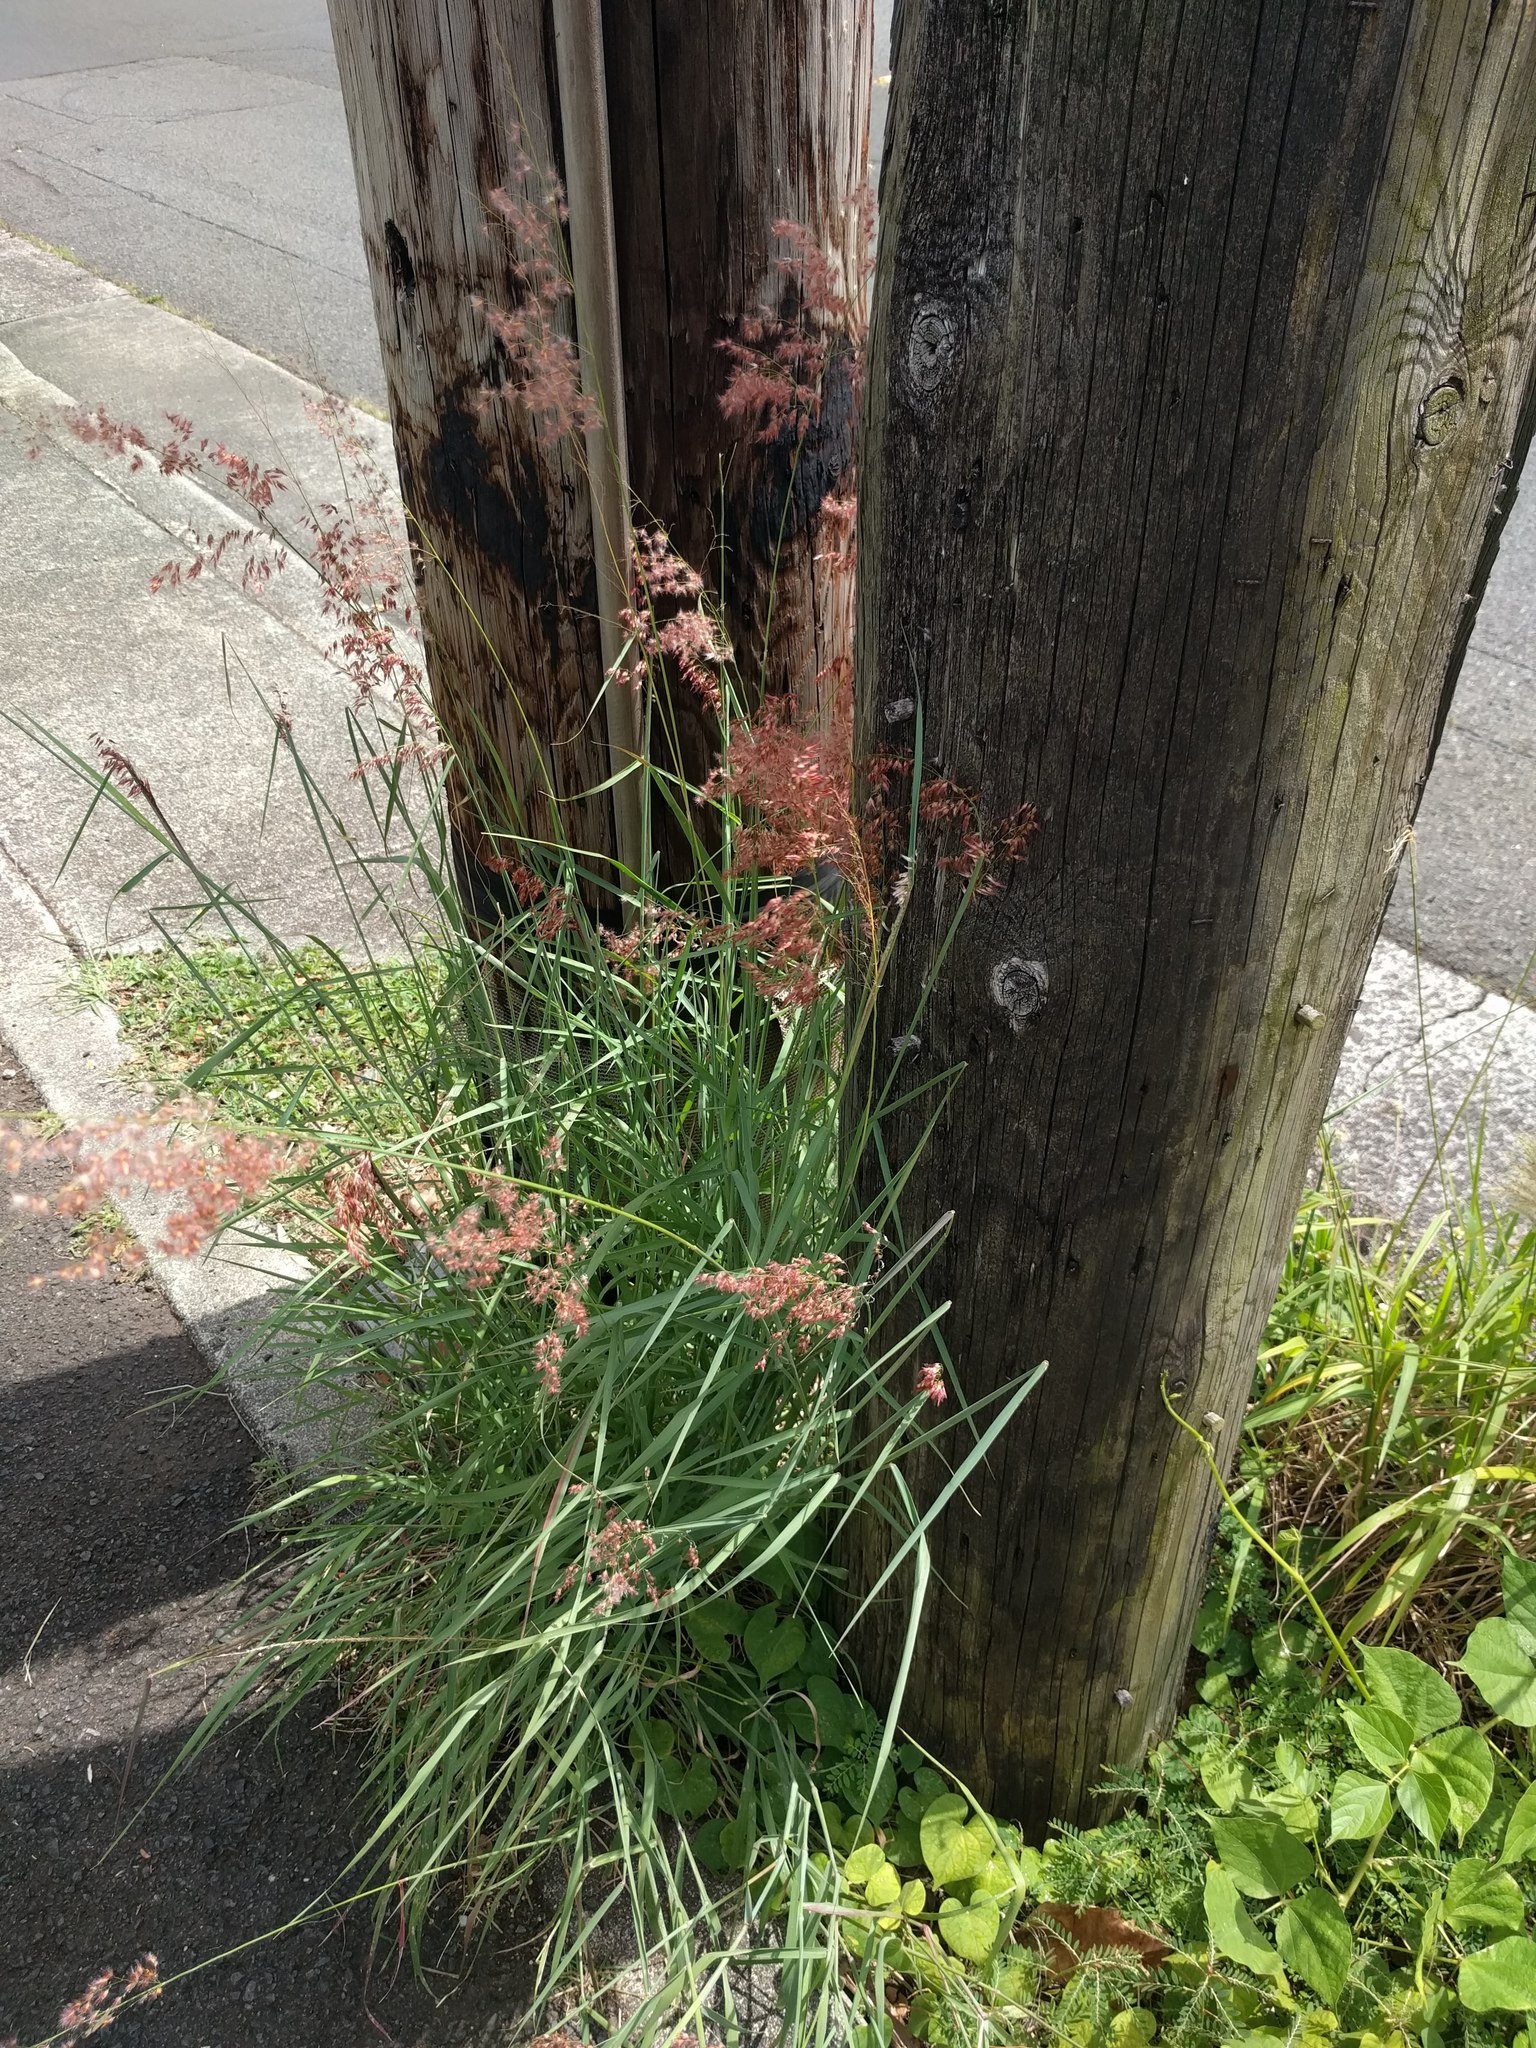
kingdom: Plantae
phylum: Tracheophyta
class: Liliopsida
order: Poales
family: Poaceae
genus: Melinis
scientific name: Melinis repens
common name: Rose natal grass
